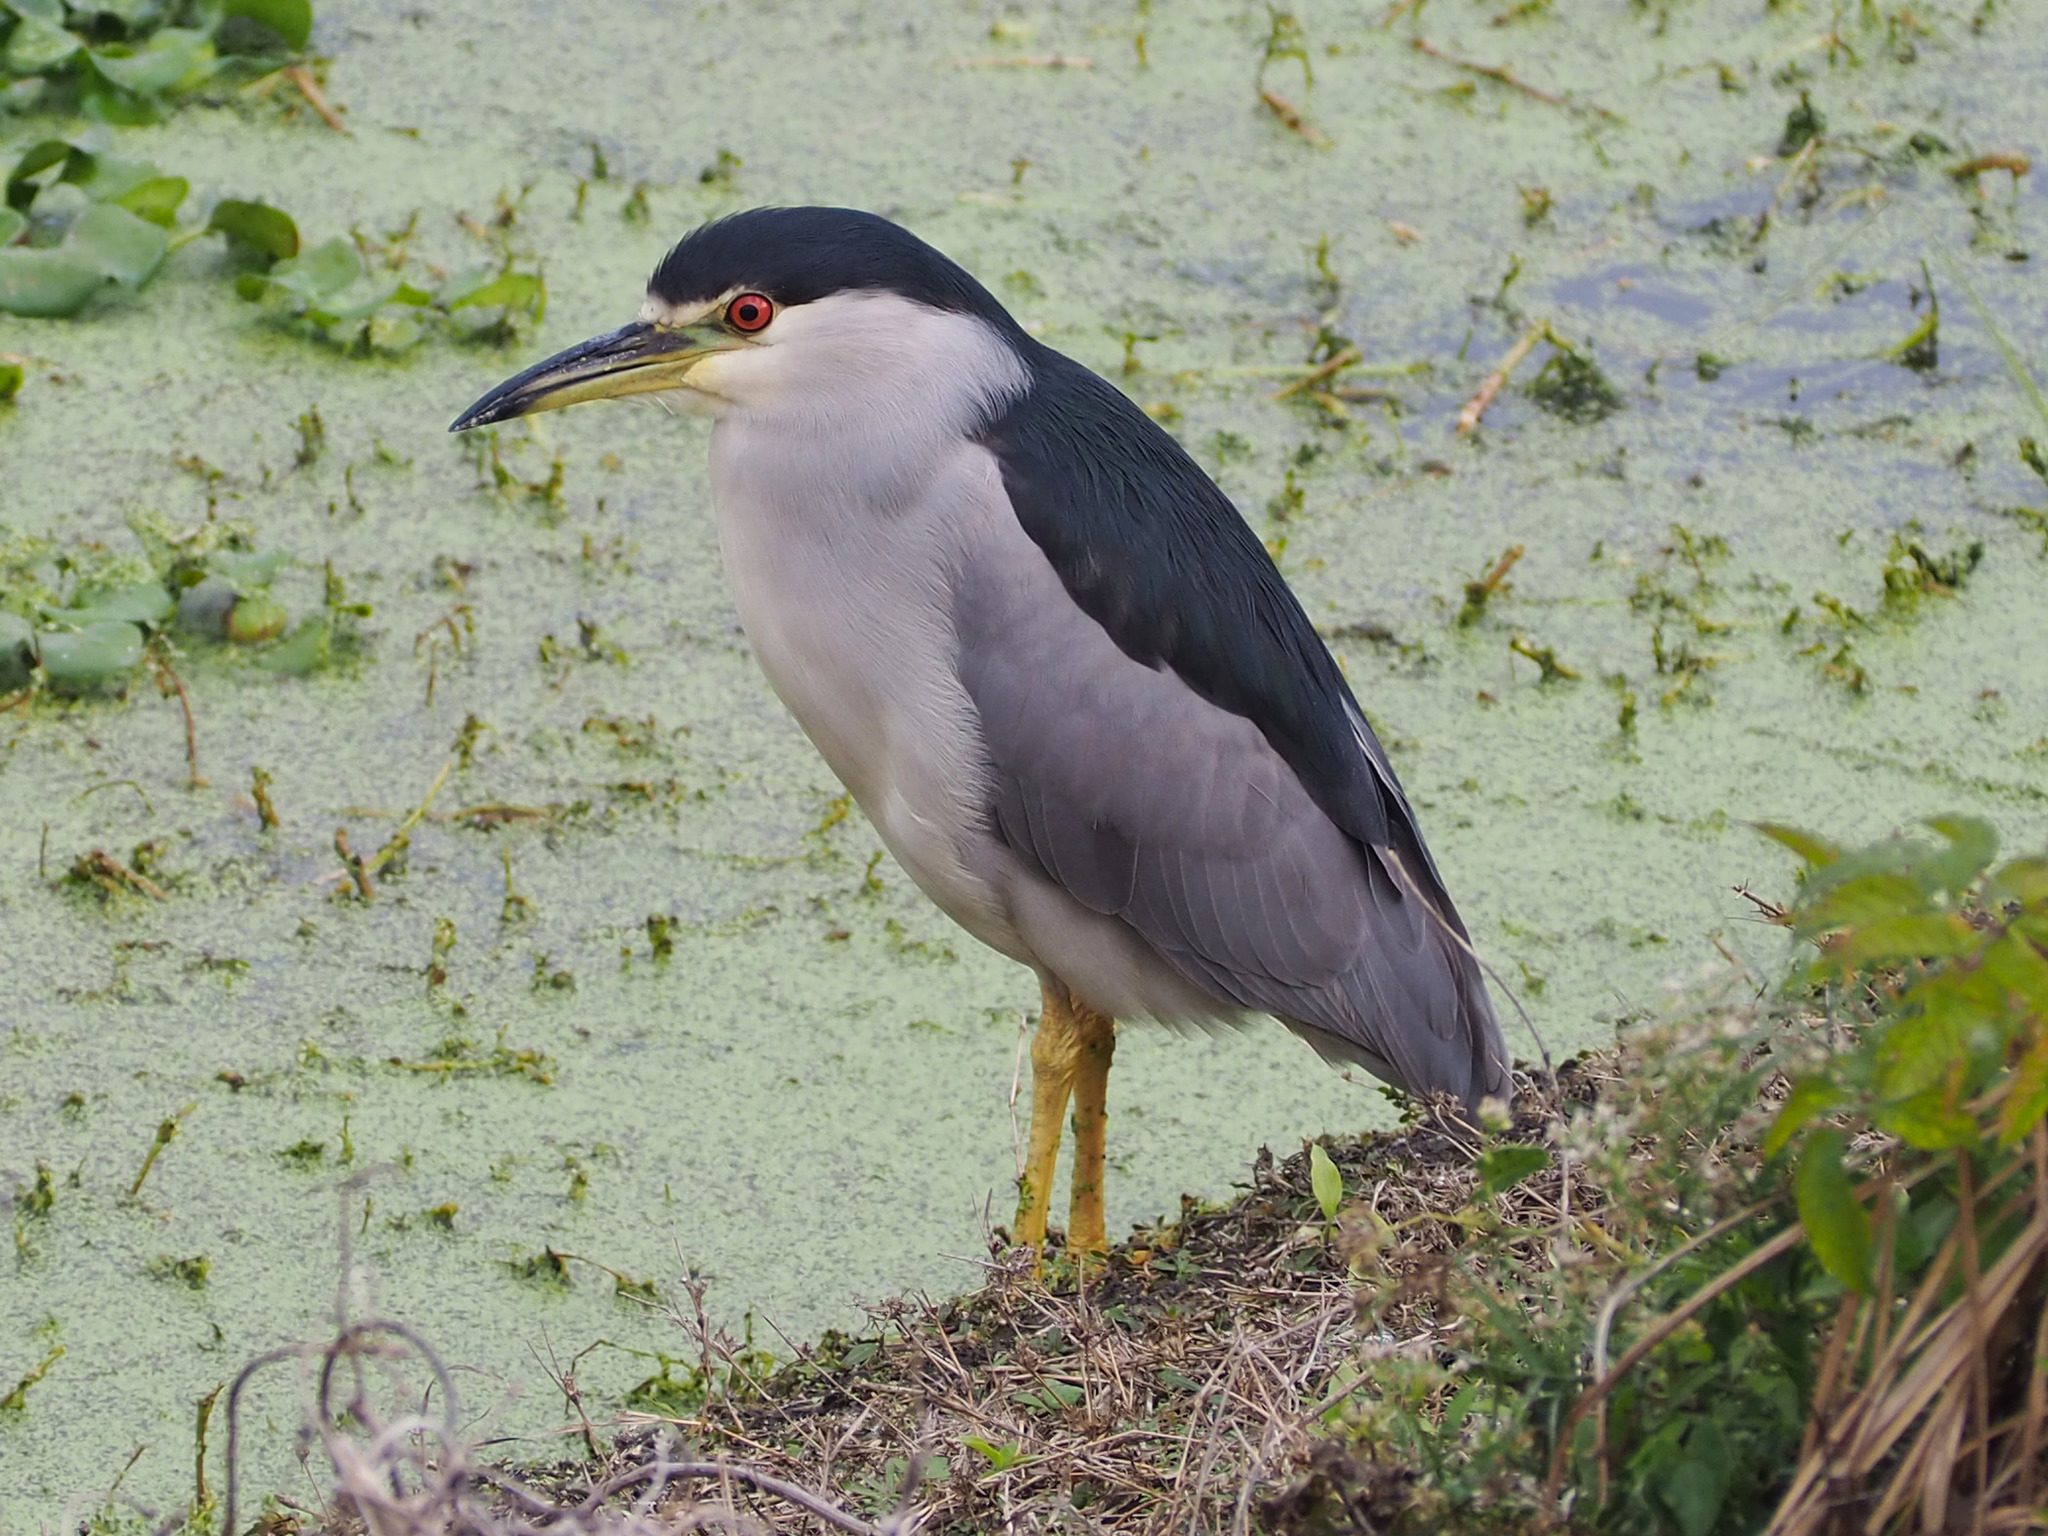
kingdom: Animalia
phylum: Chordata
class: Aves
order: Pelecaniformes
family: Ardeidae
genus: Nycticorax
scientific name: Nycticorax nycticorax
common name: Black-crowned night heron
